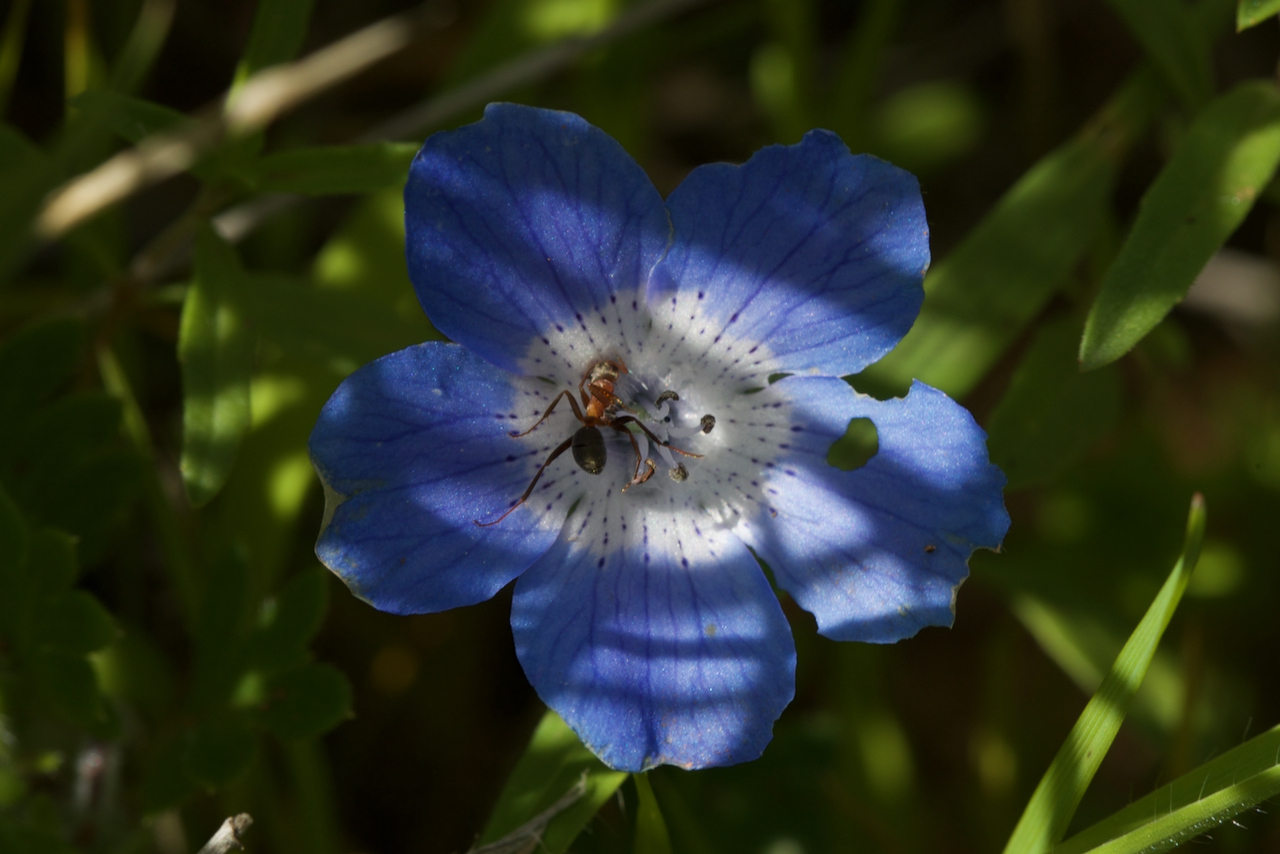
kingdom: Plantae
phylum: Tracheophyta
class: Magnoliopsida
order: Boraginales
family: Hydrophyllaceae
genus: Nemophila
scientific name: Nemophila menziesii
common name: Baby's-blue-eyes
